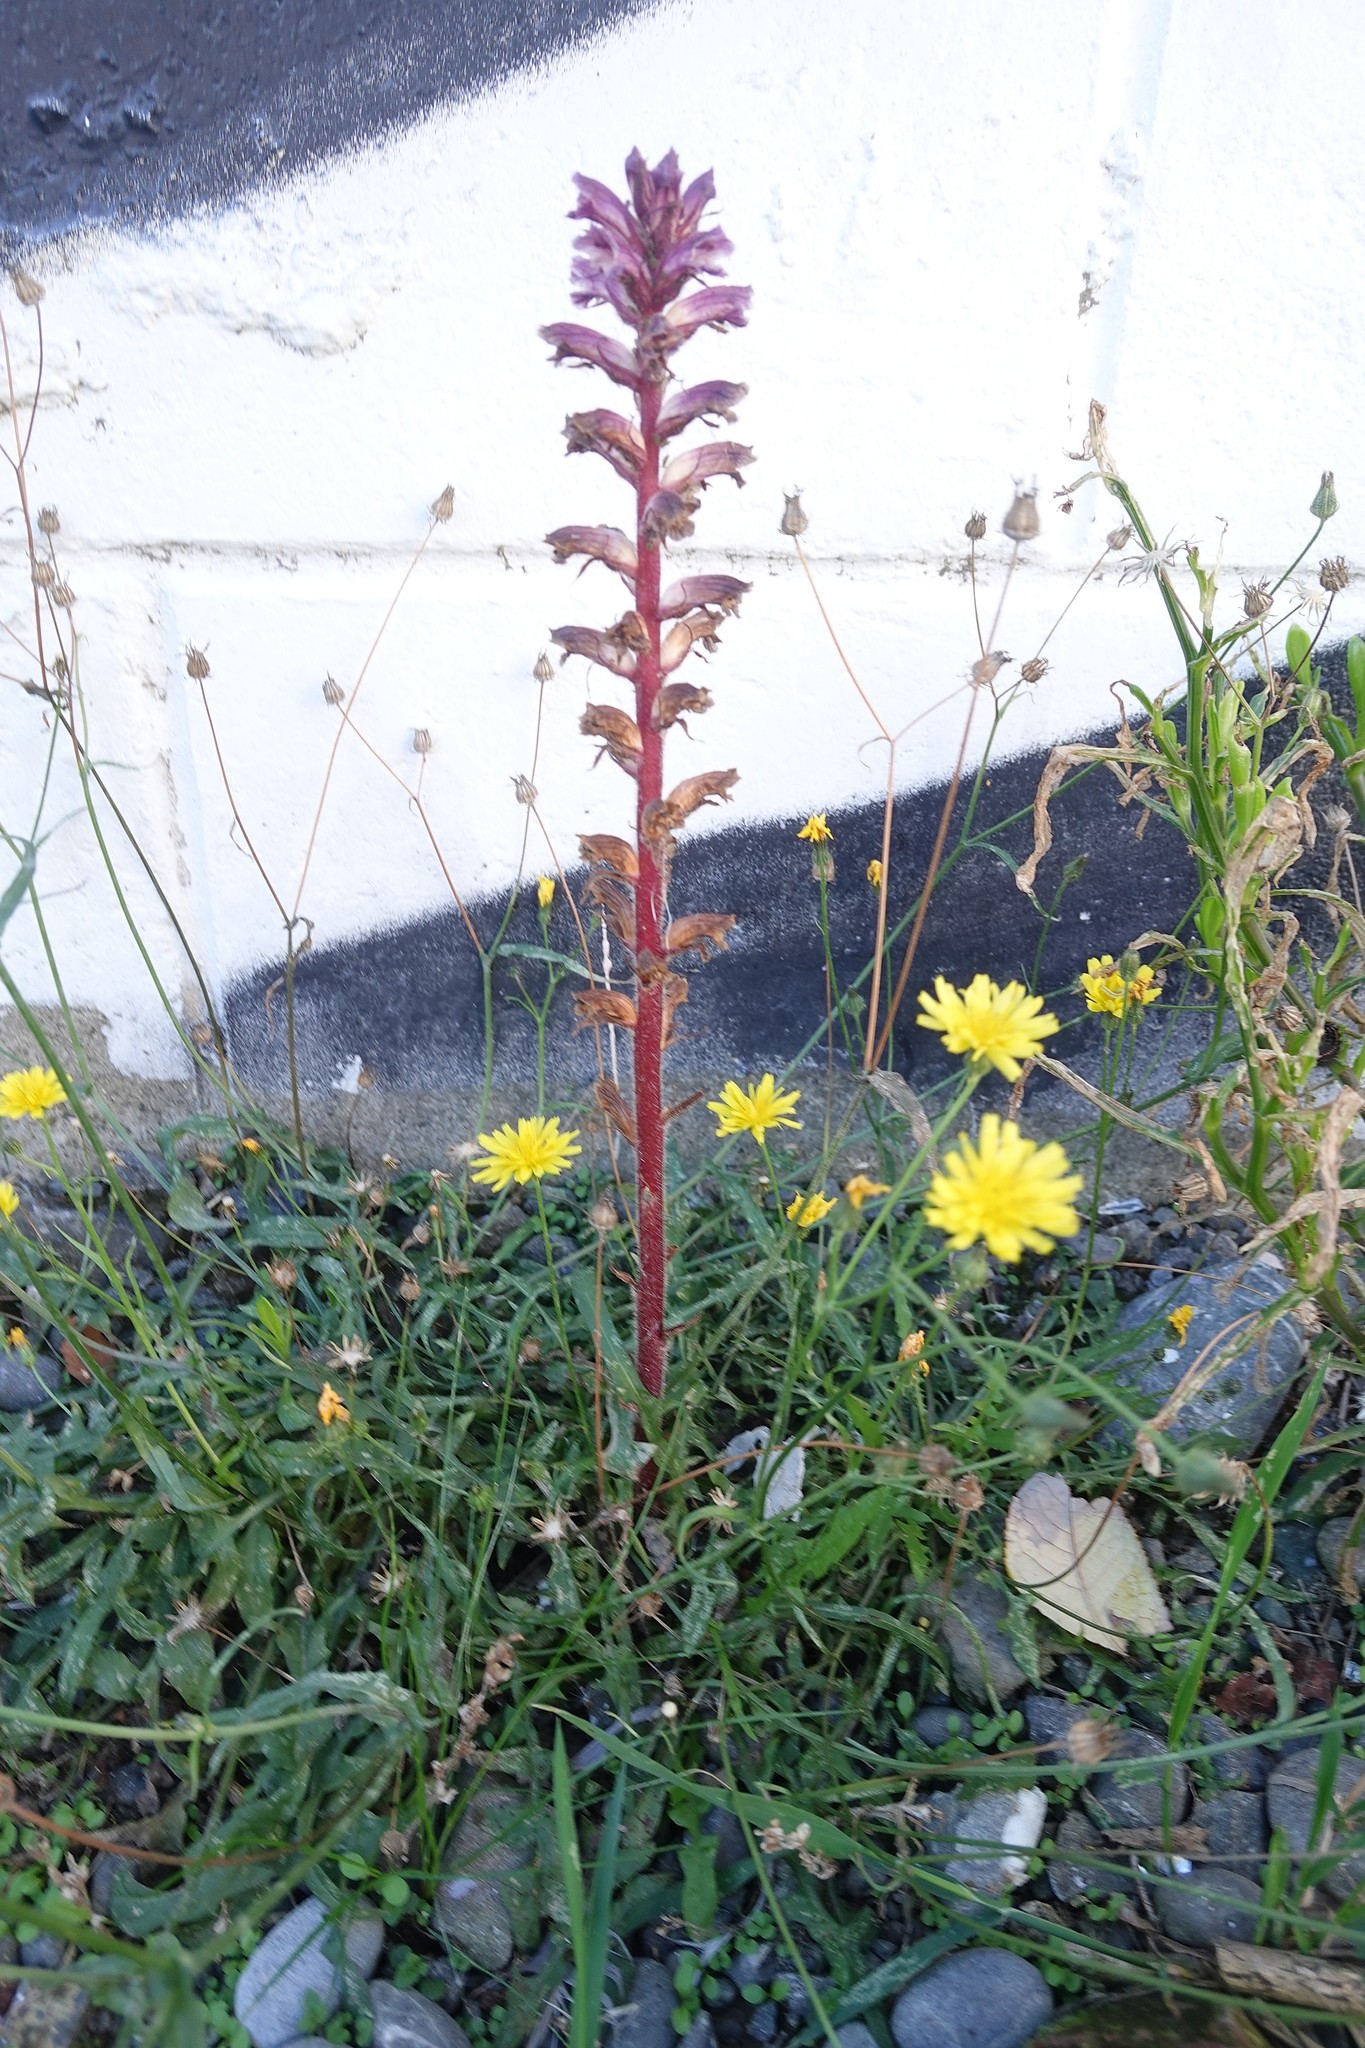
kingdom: Plantae
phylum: Tracheophyta
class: Magnoliopsida
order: Lamiales
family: Orobanchaceae
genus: Orobanche
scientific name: Orobanche minor
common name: Common broomrape
